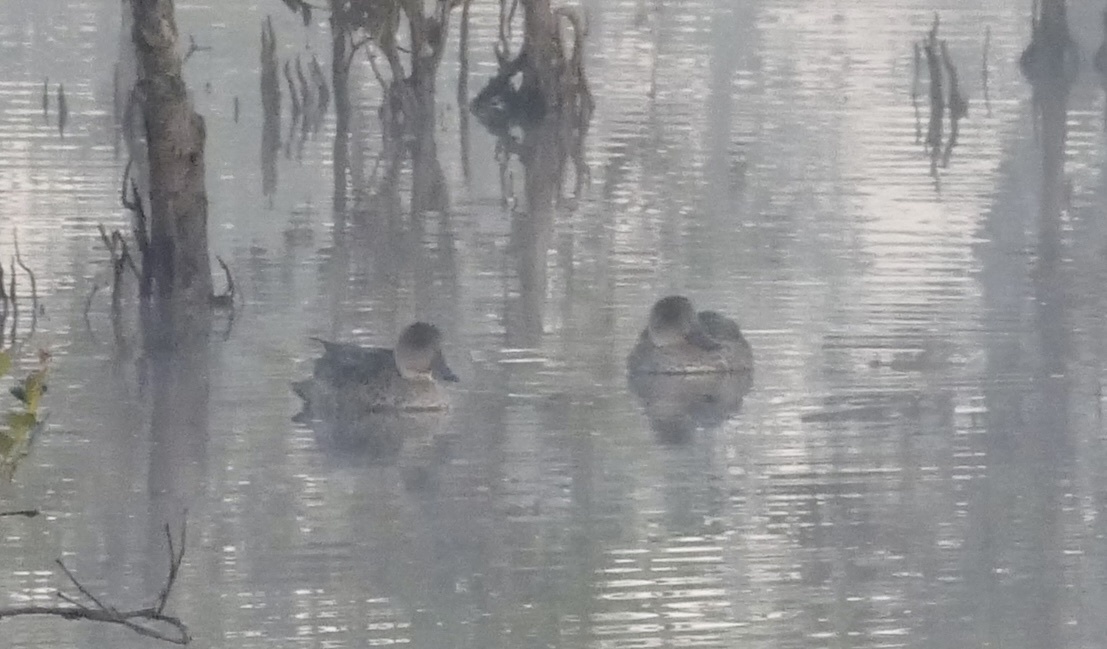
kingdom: Animalia
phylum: Chordata
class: Aves
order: Anseriformes
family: Anatidae
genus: Anas
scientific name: Anas gracilis
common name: Grey teal
